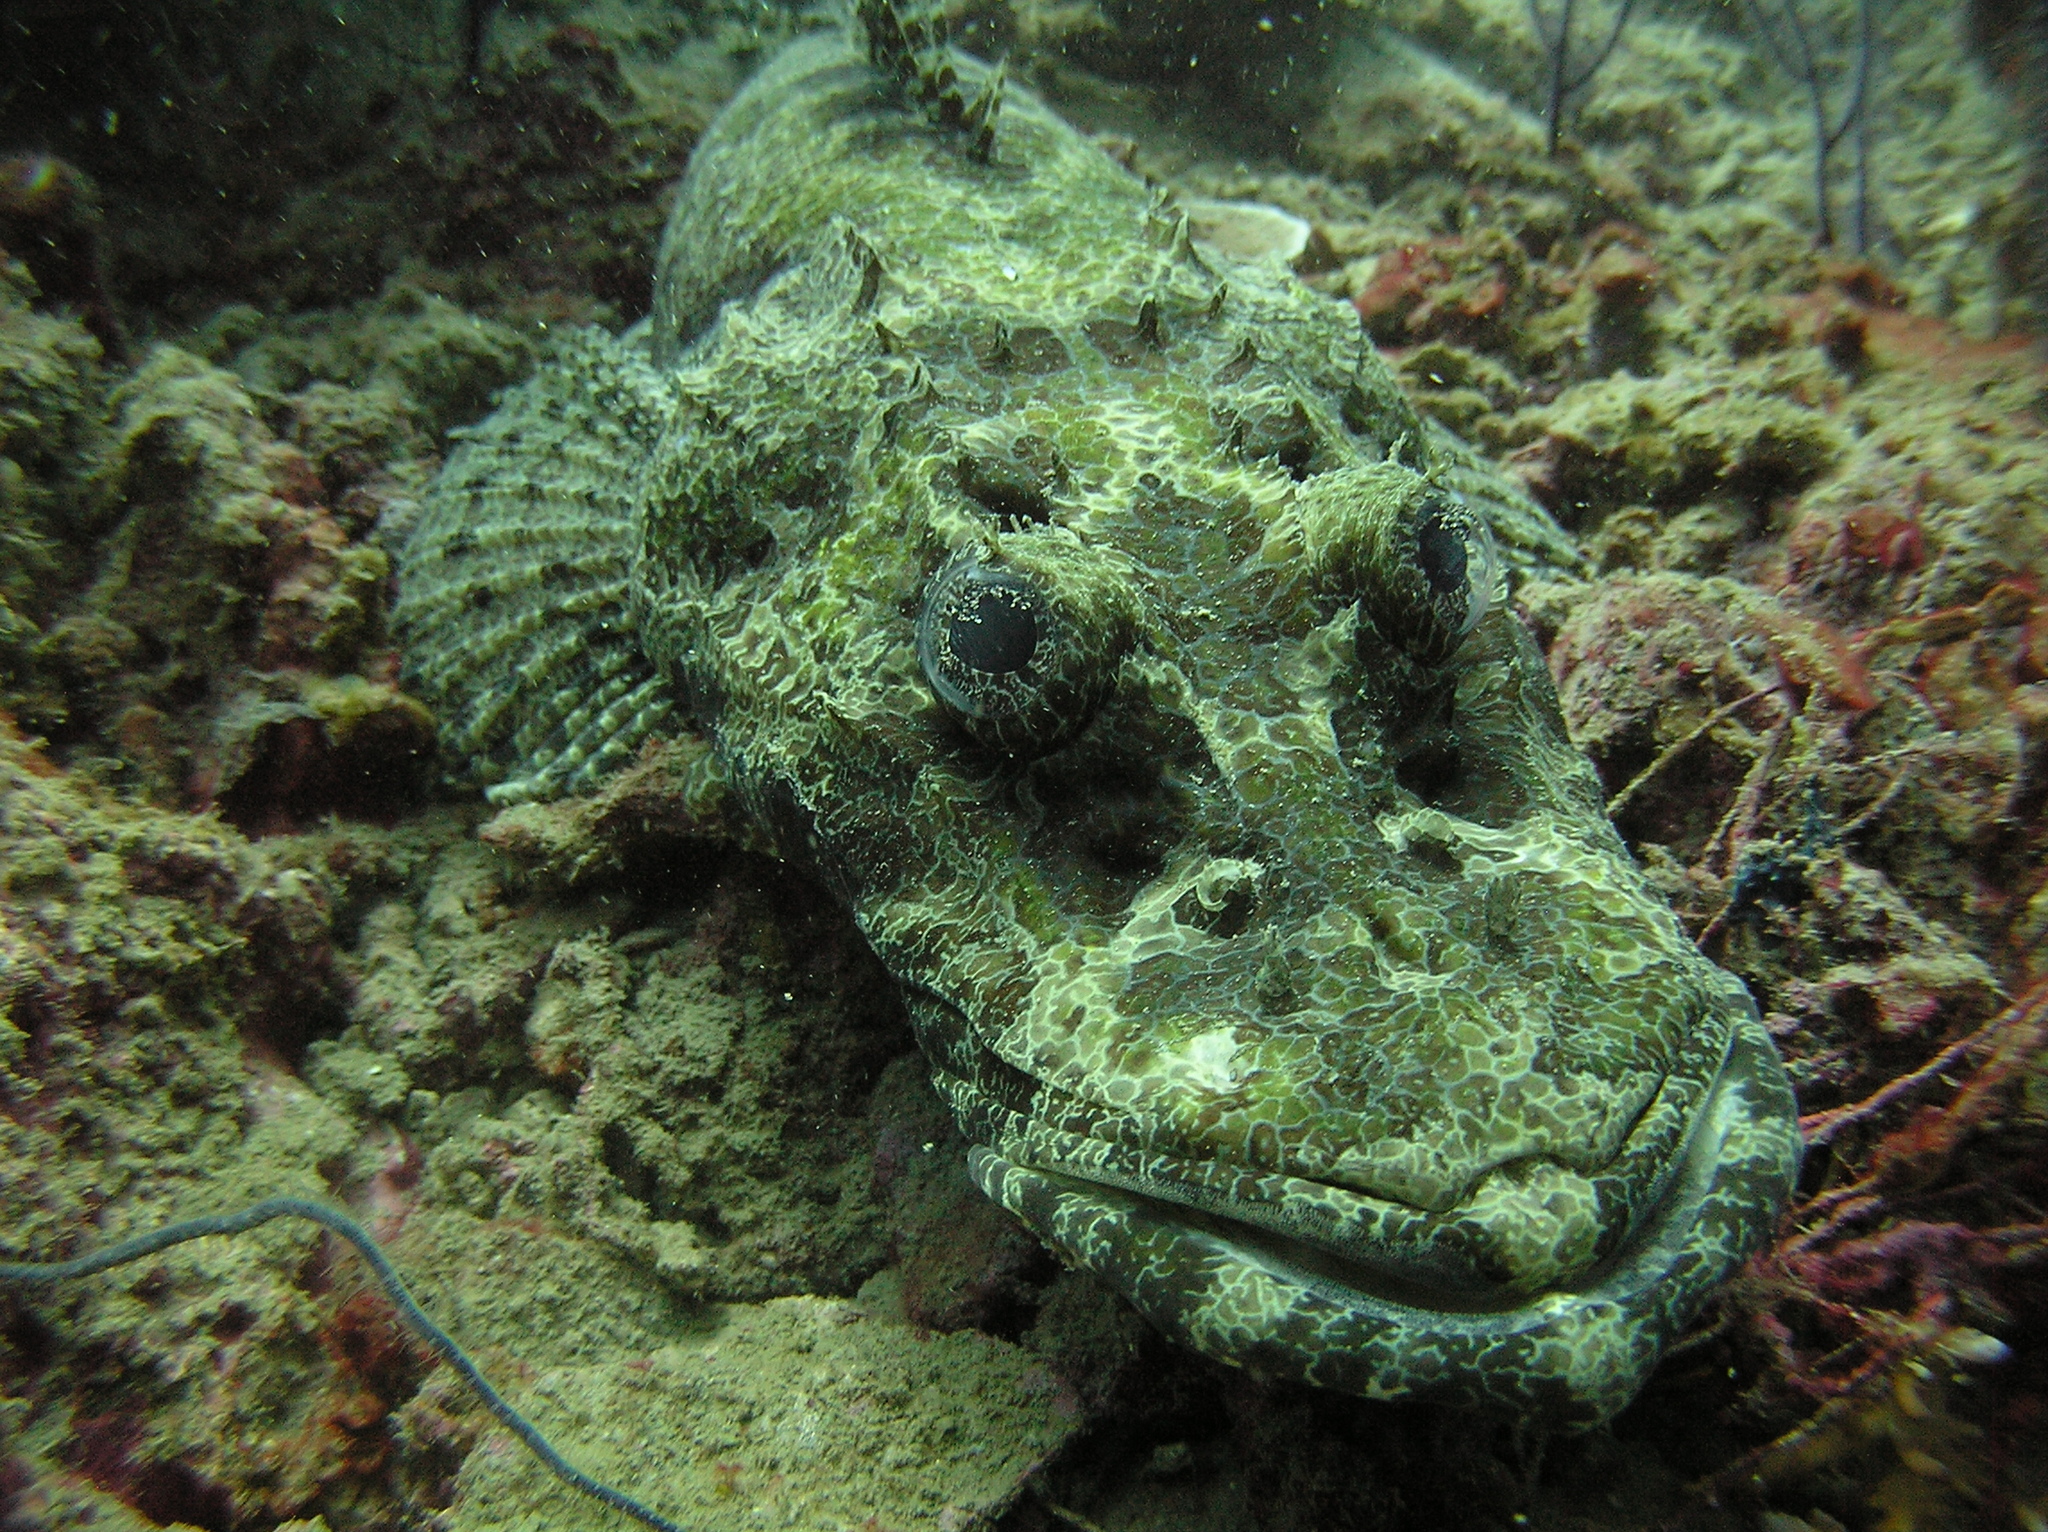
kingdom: Animalia
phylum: Chordata
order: Scorpaeniformes
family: Platycephalidae
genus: Cymbacephalus
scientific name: Cymbacephalus beauforti
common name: Crocodile fish
